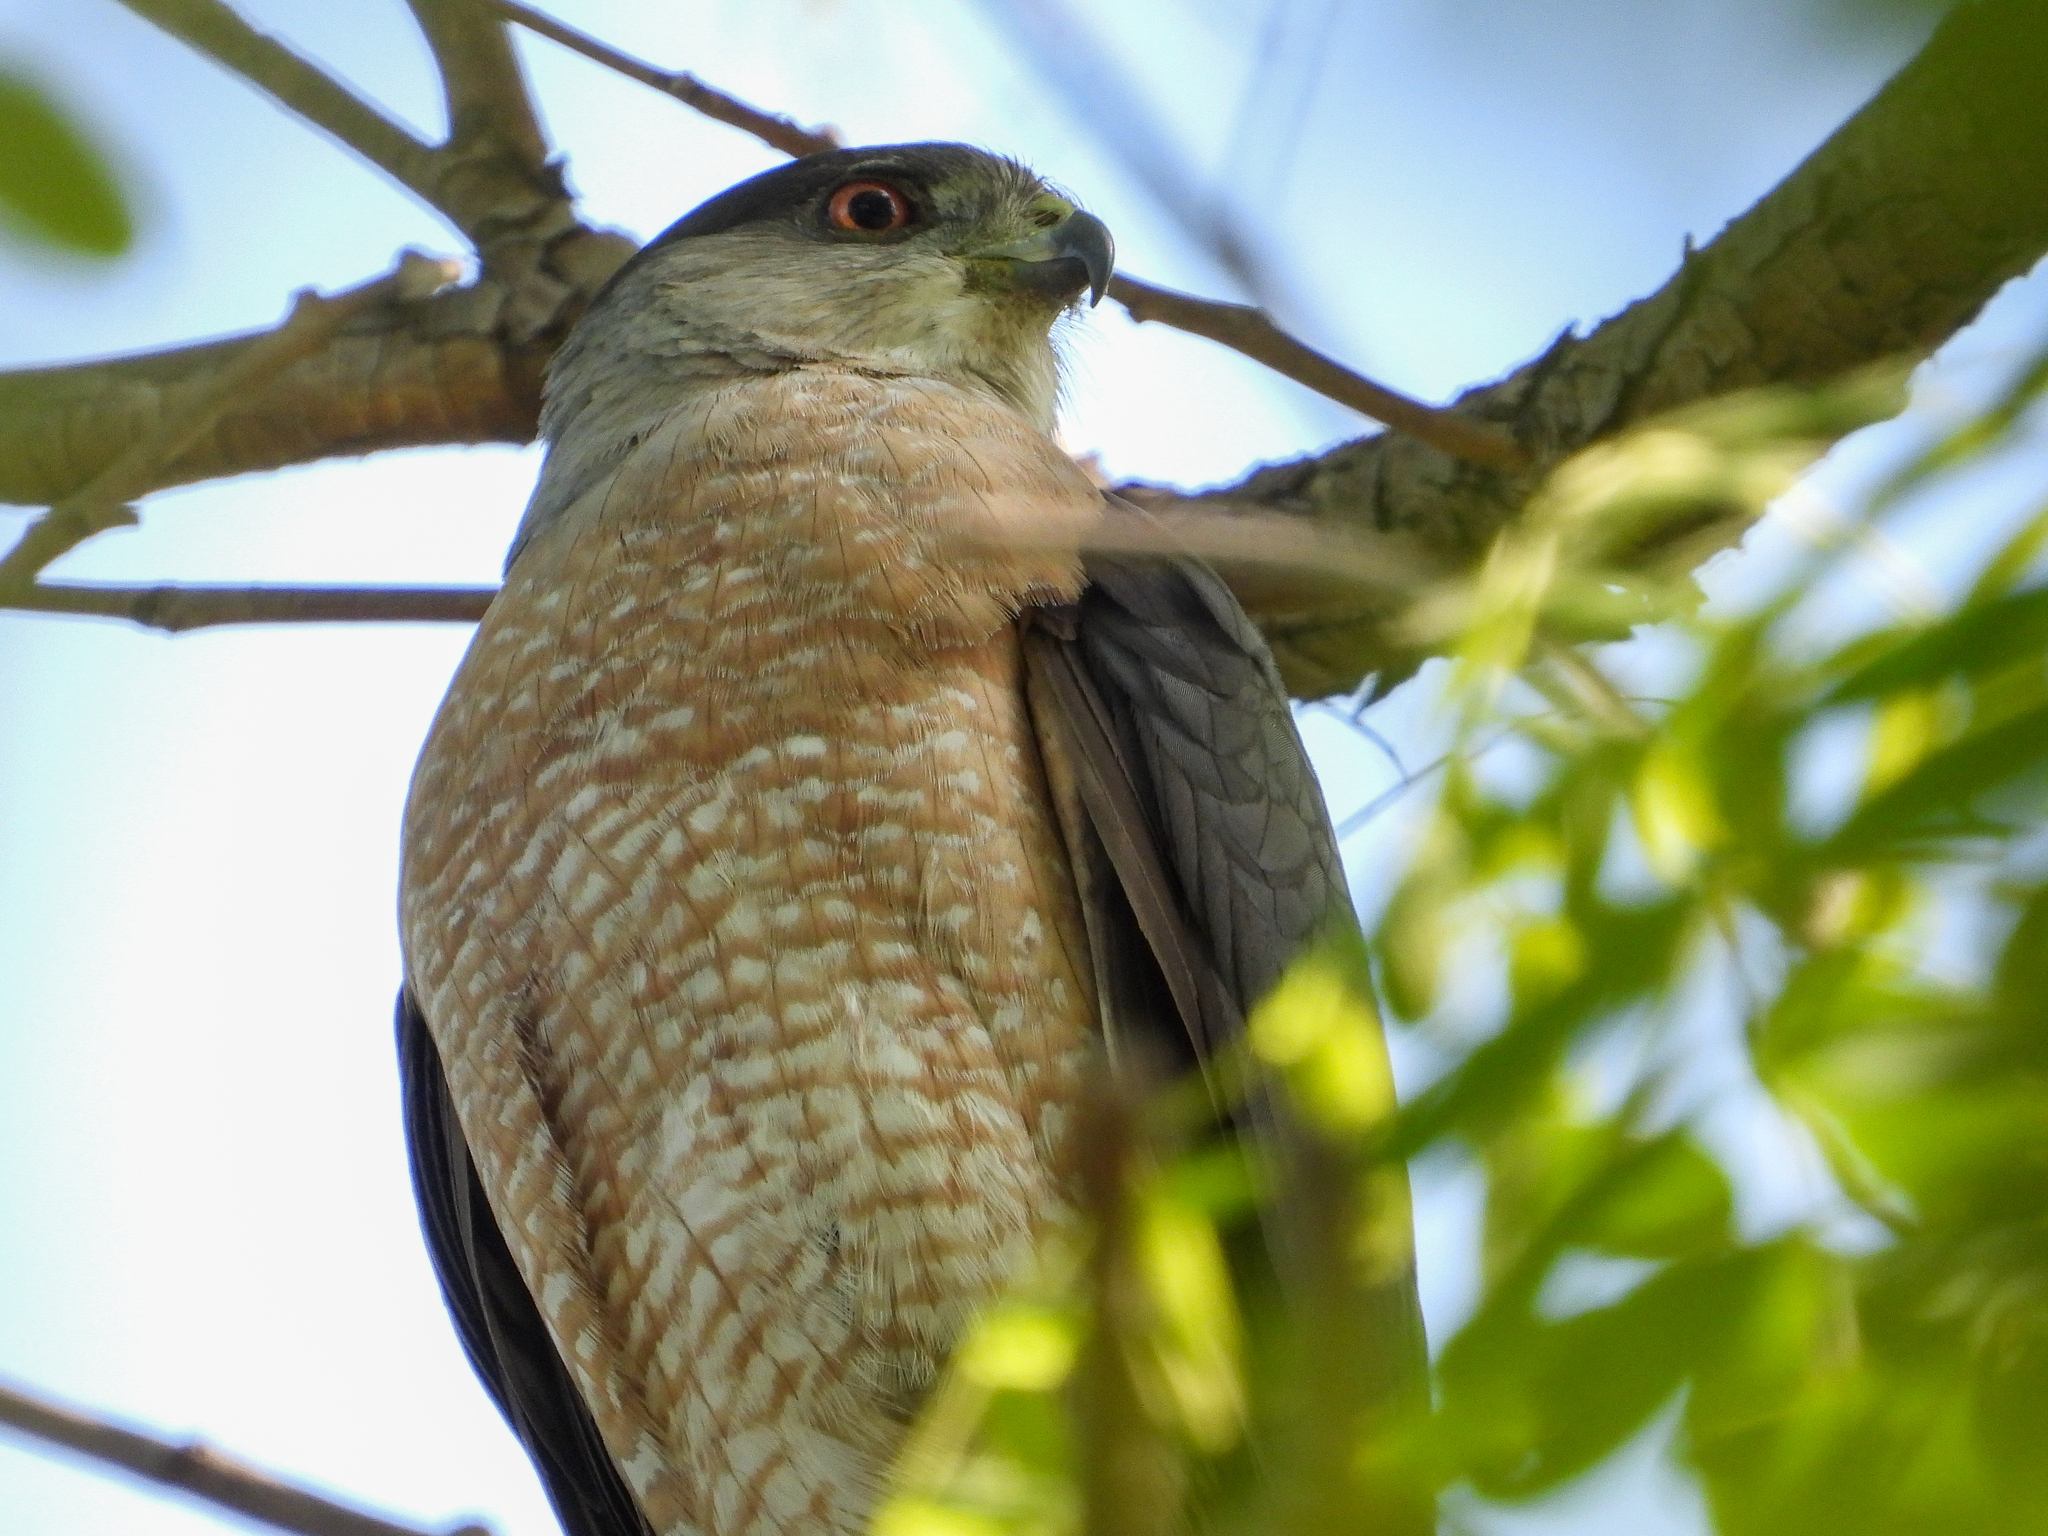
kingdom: Animalia
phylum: Chordata
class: Aves
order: Accipitriformes
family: Accipitridae
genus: Accipiter
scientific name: Accipiter cooperii
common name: Cooper's hawk
